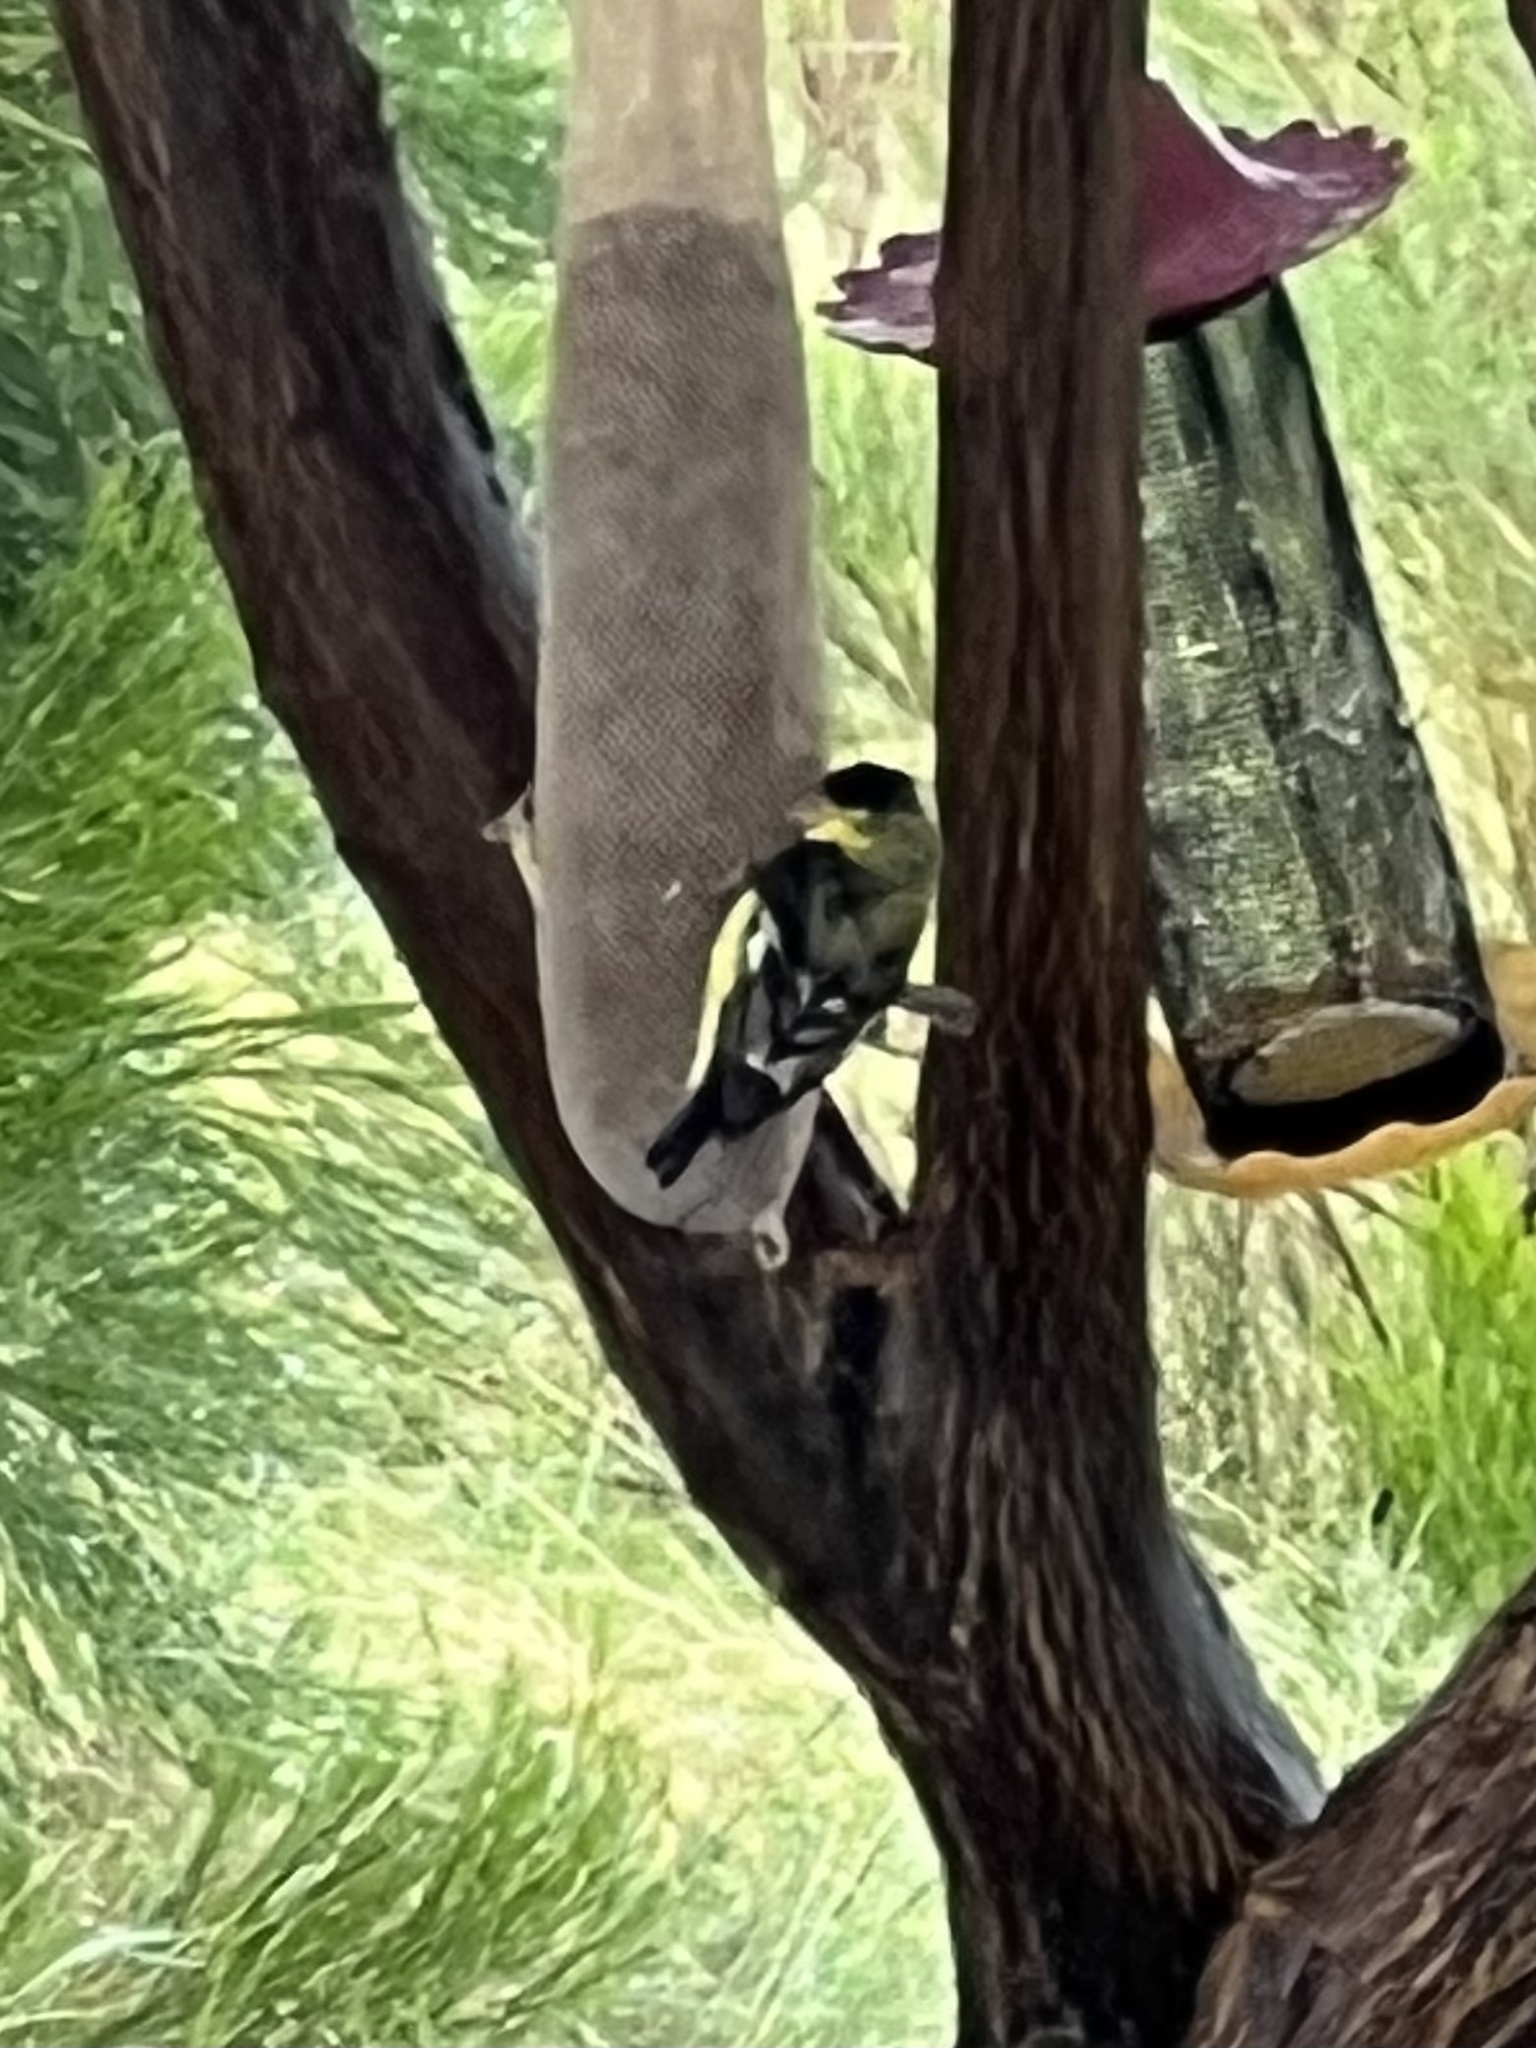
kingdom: Animalia
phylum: Chordata
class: Aves
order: Passeriformes
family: Fringillidae
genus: Spinus
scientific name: Spinus psaltria
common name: Lesser goldfinch
